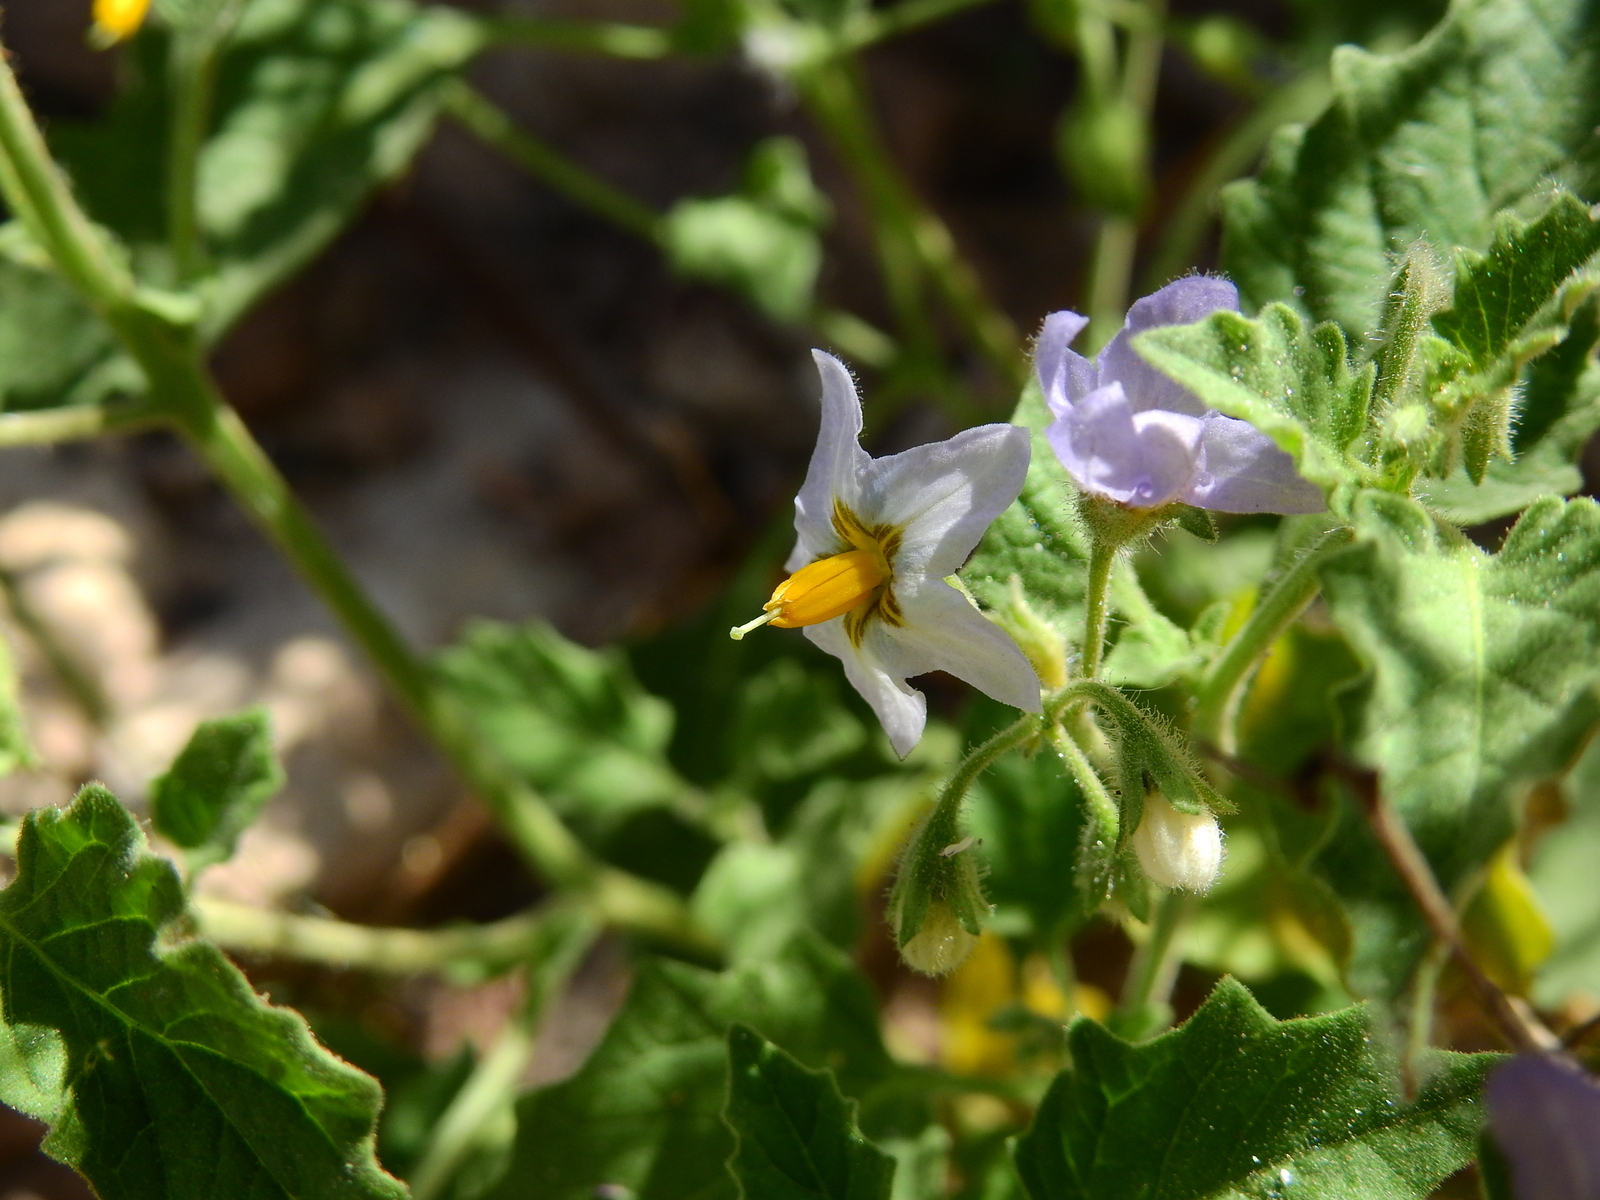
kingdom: Plantae
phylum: Tracheophyta
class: Magnoliopsida
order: Solanales
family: Solanaceae
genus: Solanum
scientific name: Solanum tweedianum
